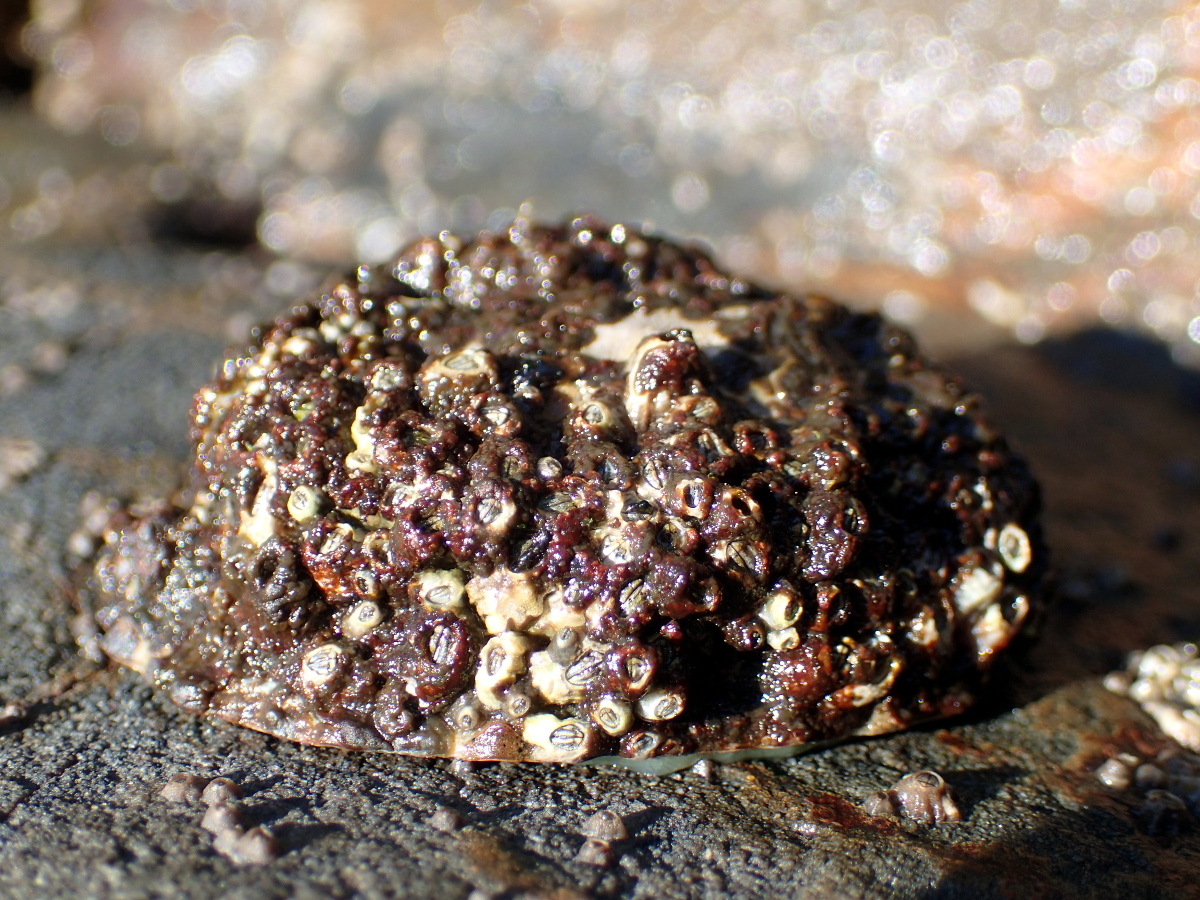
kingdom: Animalia
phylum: Mollusca
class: Gastropoda
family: Nacellidae
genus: Cellana
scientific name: Cellana
